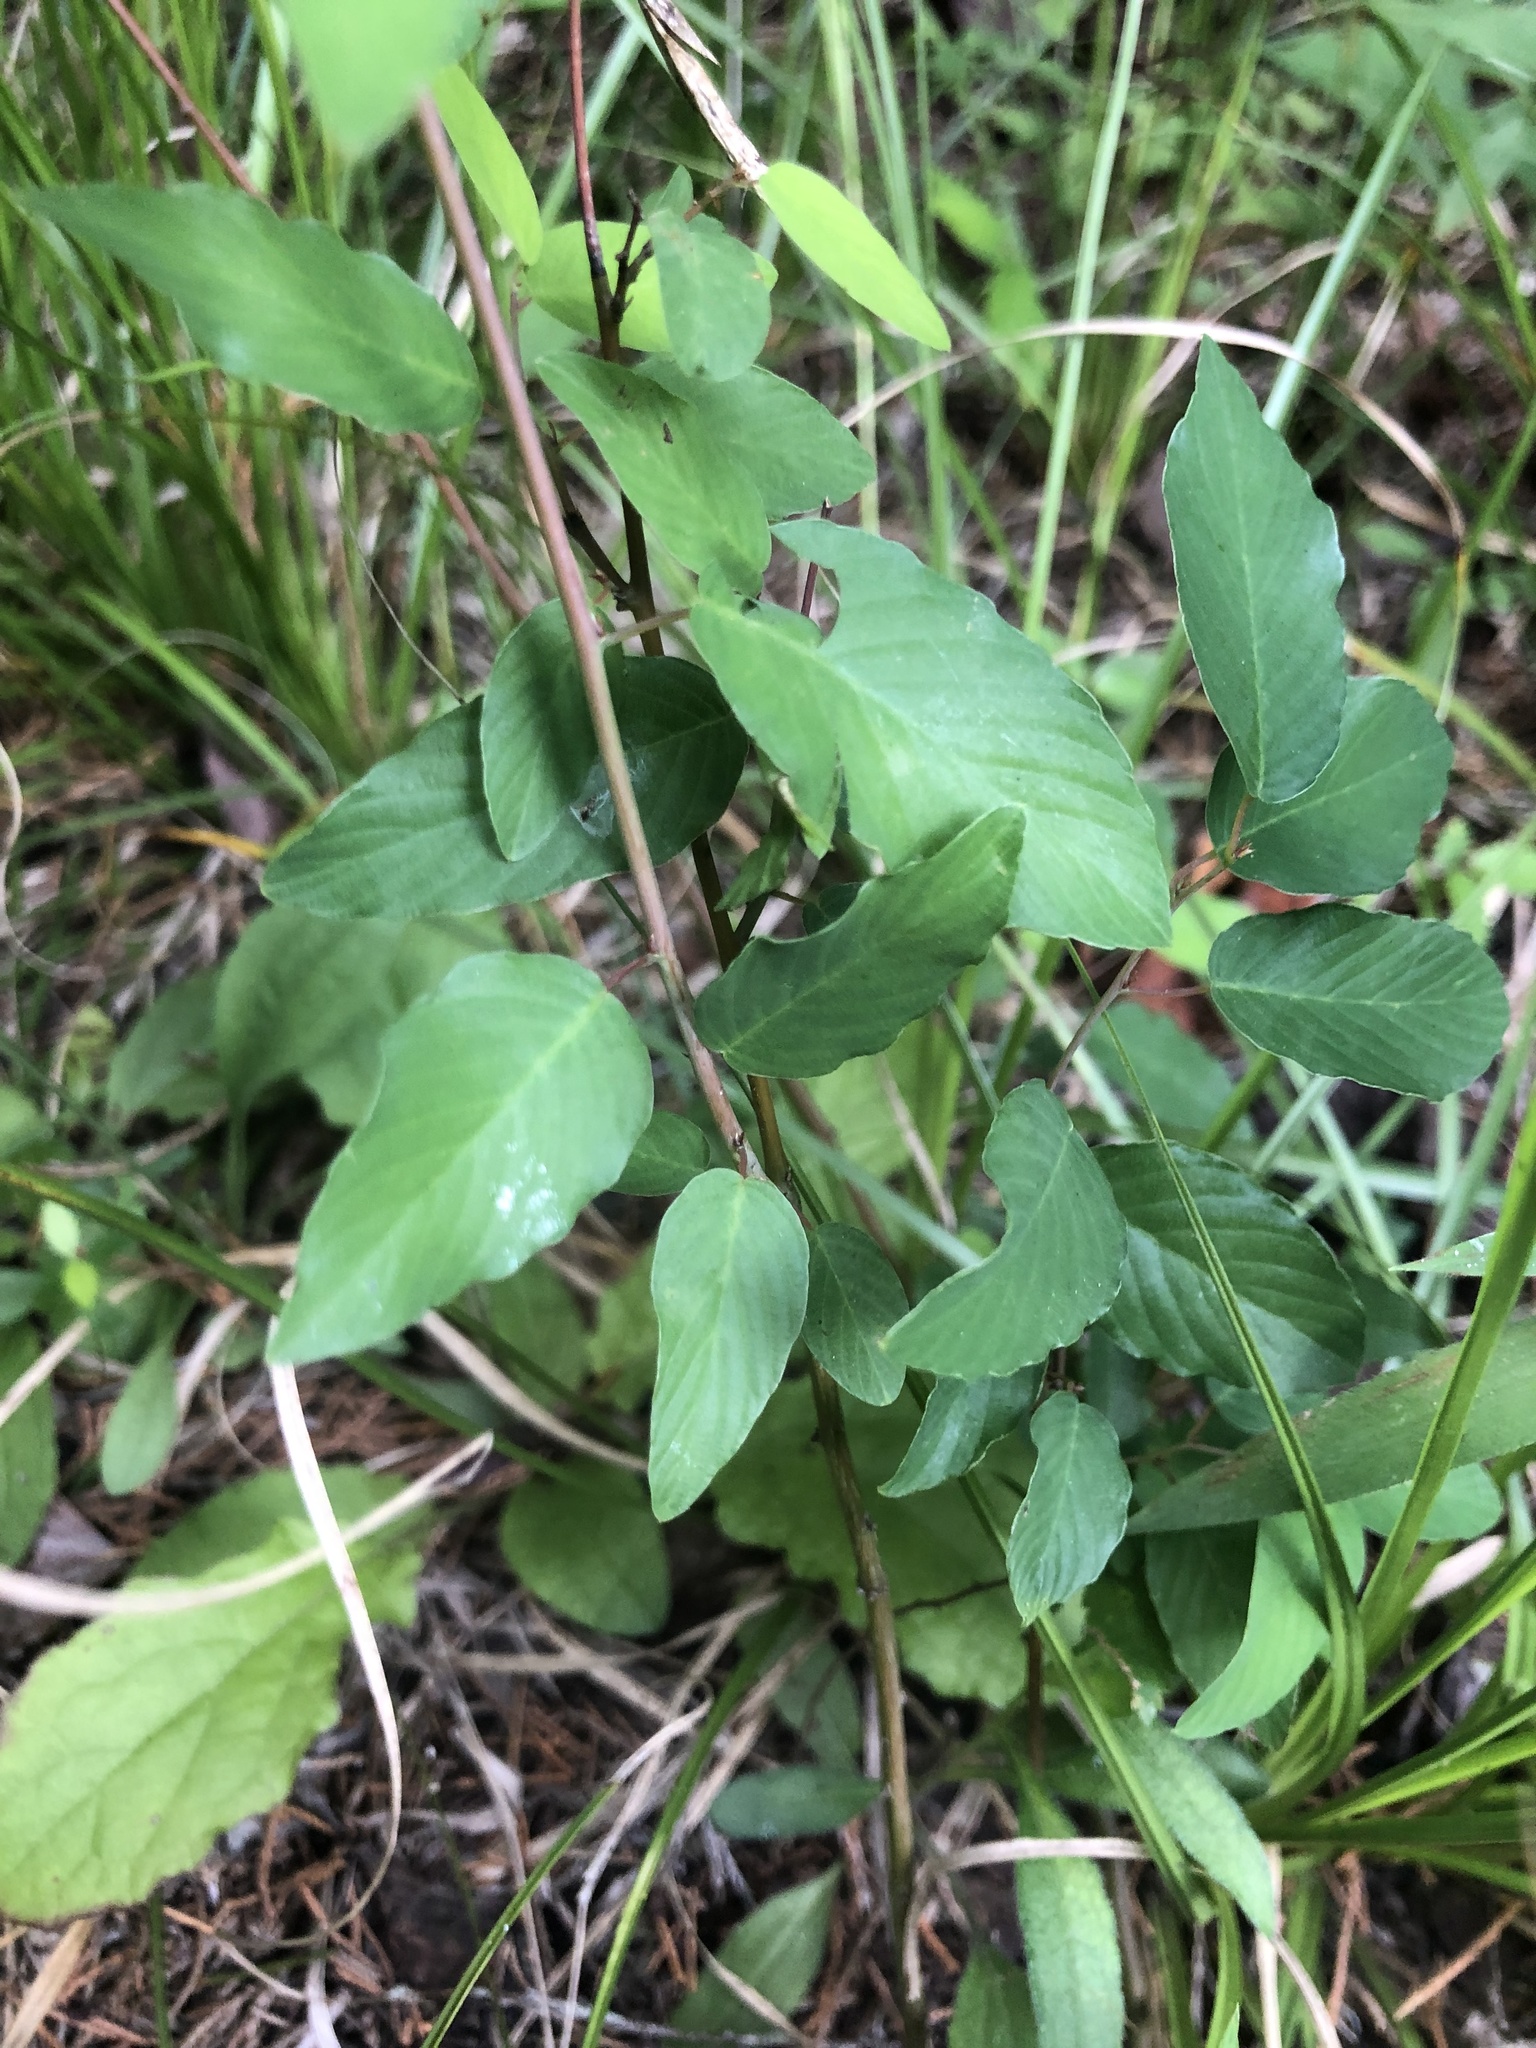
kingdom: Plantae
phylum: Tracheophyta
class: Magnoliopsida
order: Rosales
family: Rhamnaceae
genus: Berchemia
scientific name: Berchemia scandens
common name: Supplejack
